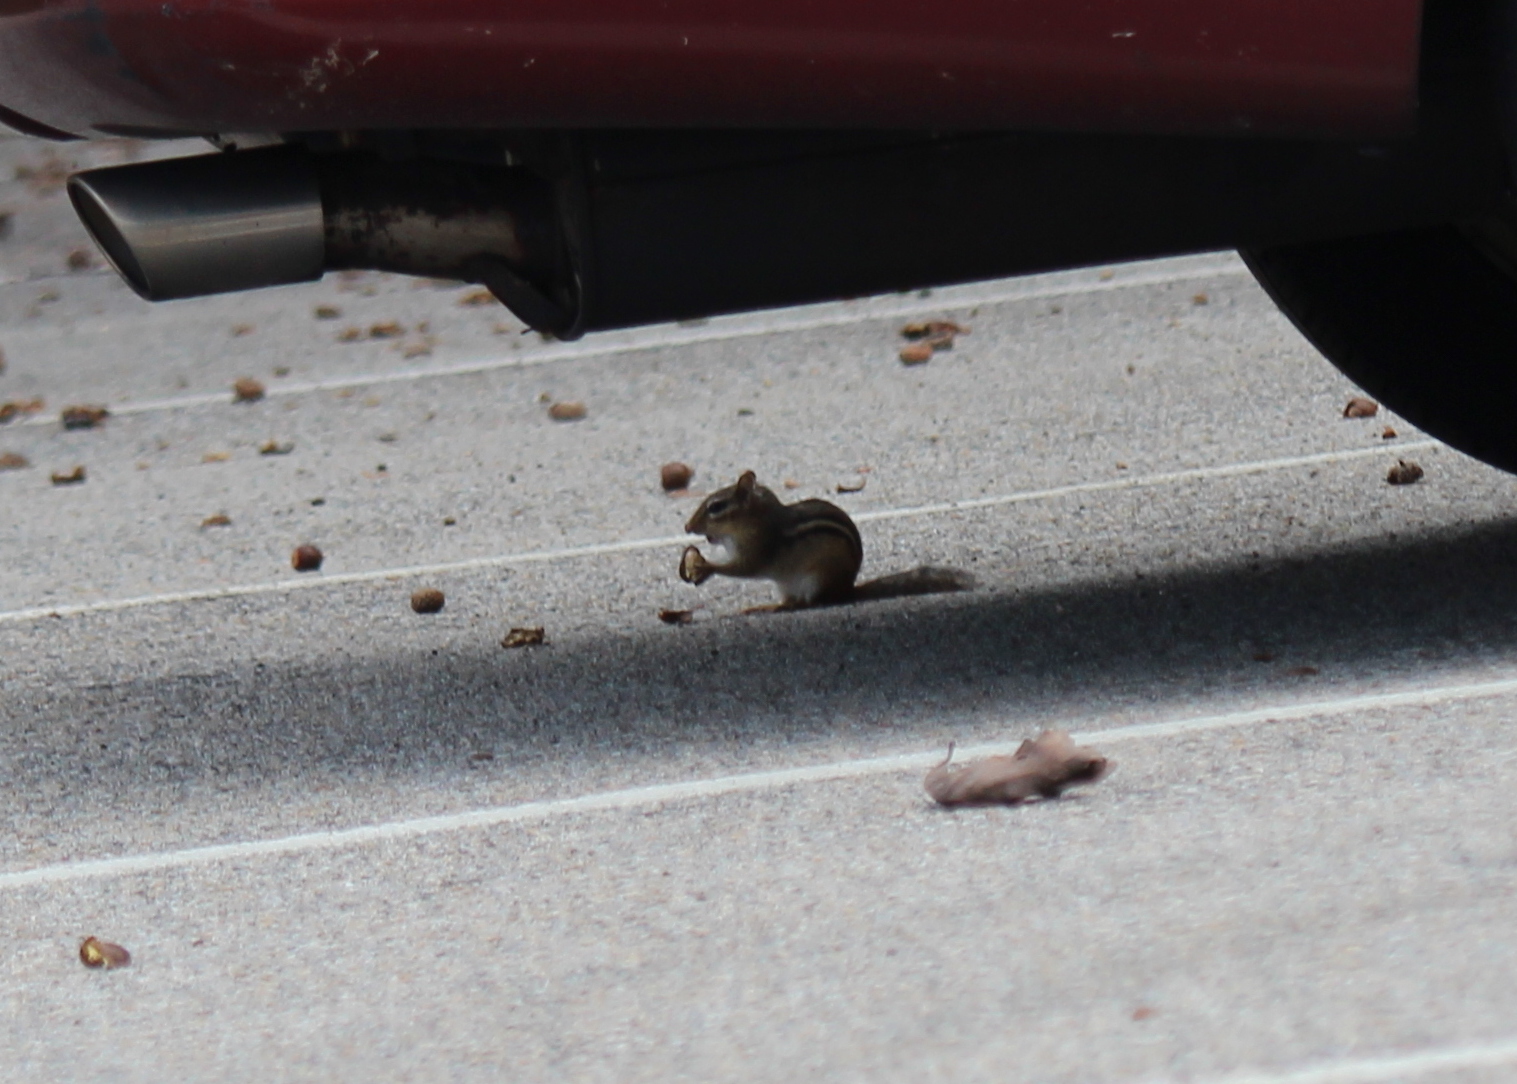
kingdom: Animalia
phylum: Chordata
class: Mammalia
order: Rodentia
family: Sciuridae
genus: Tamias
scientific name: Tamias striatus
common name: Eastern chipmunk
